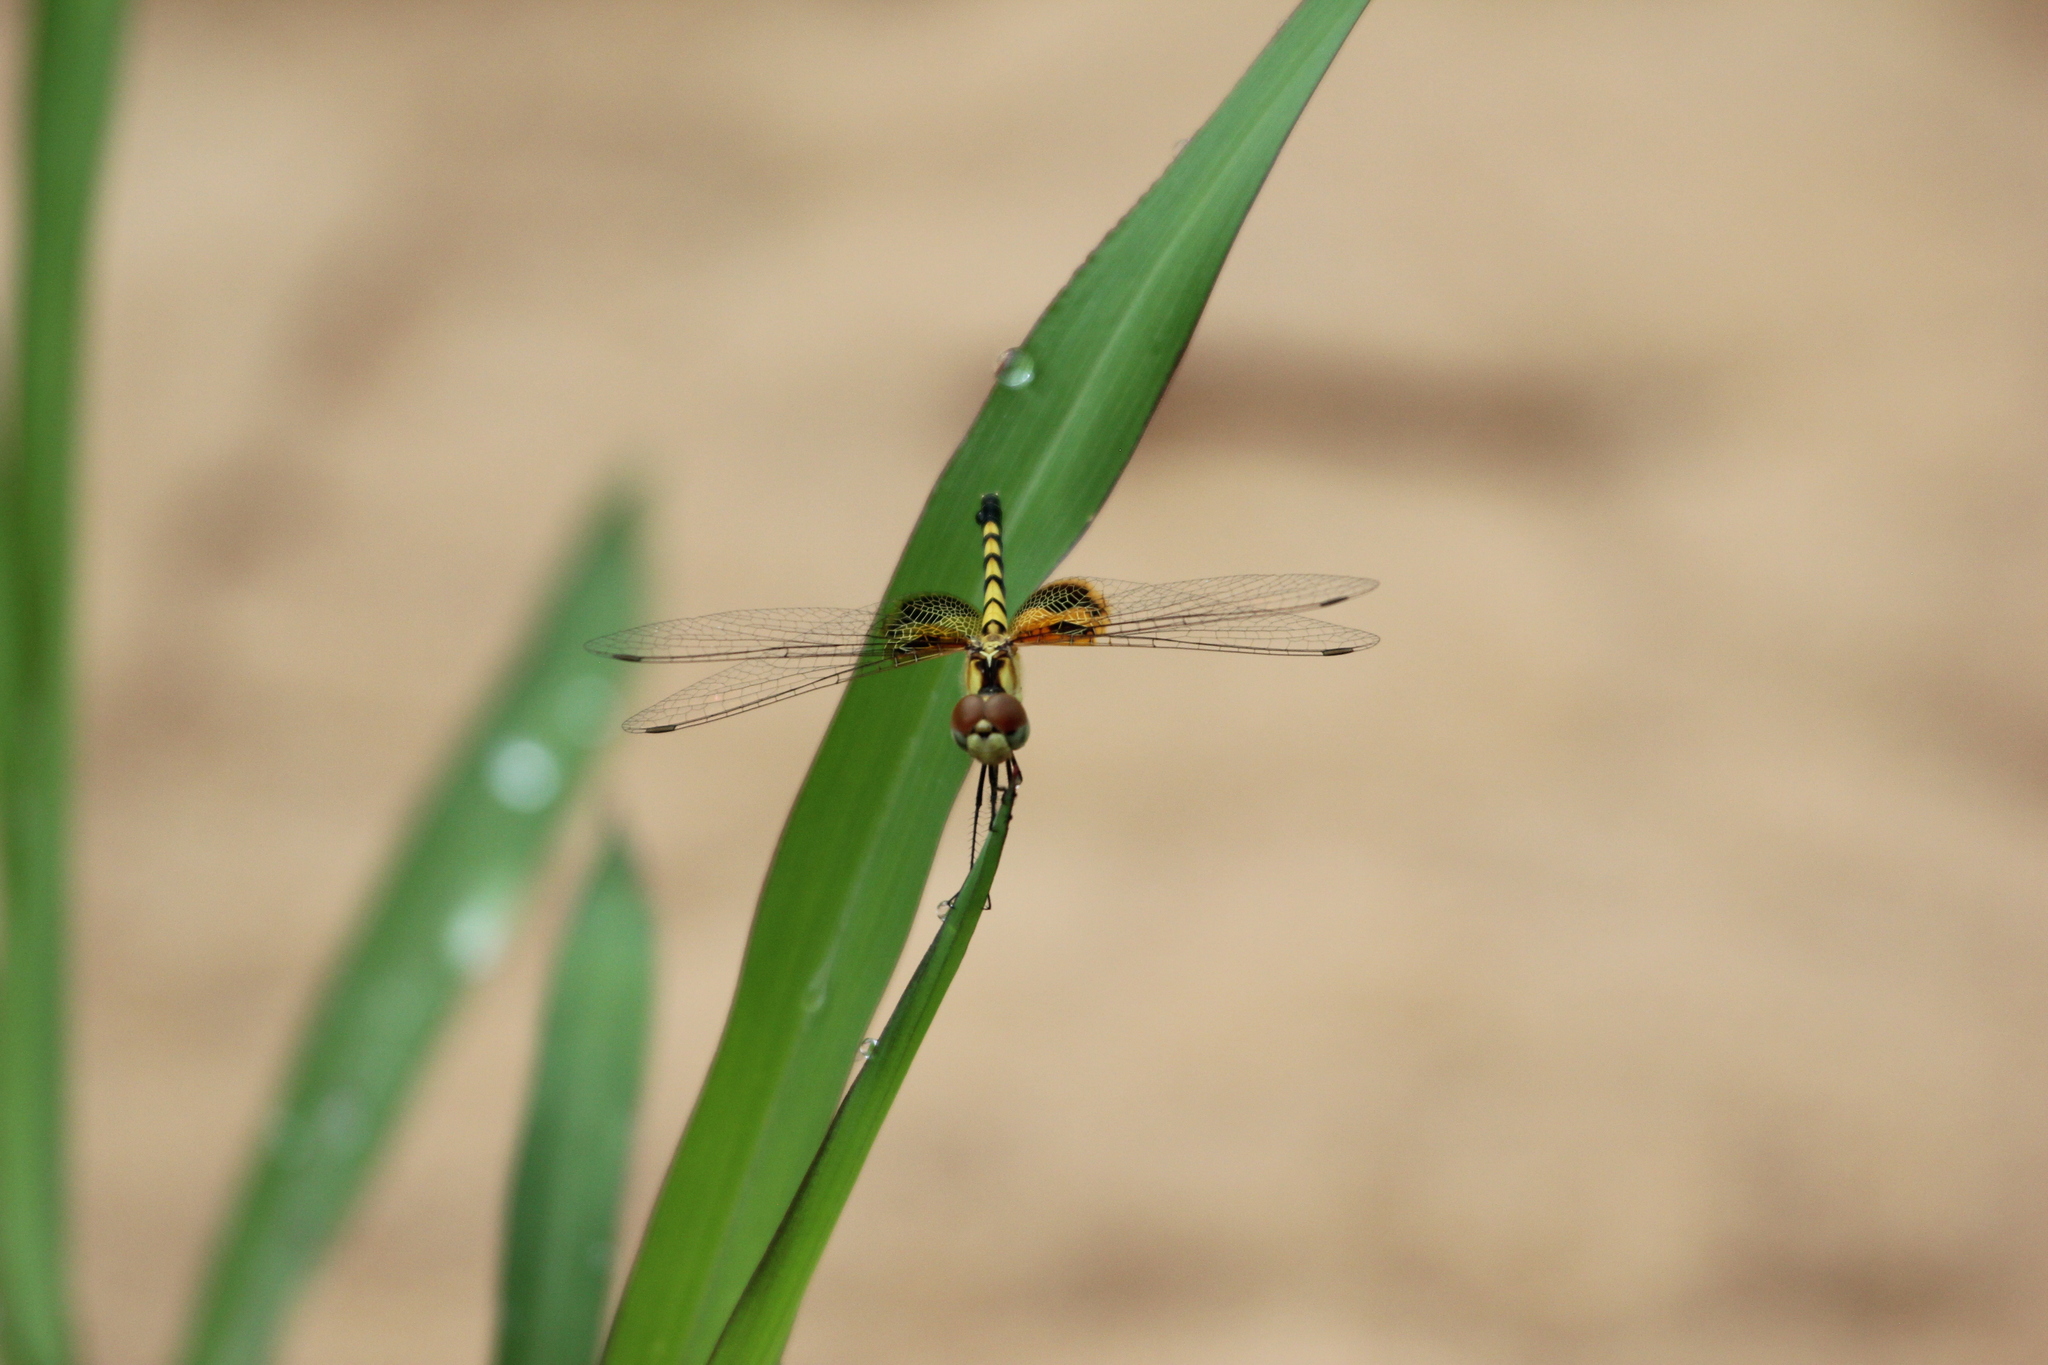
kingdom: Animalia
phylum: Arthropoda
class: Insecta
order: Odonata
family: Libellulidae
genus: Celithemis
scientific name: Celithemis amanda
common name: Amanda's pennant
